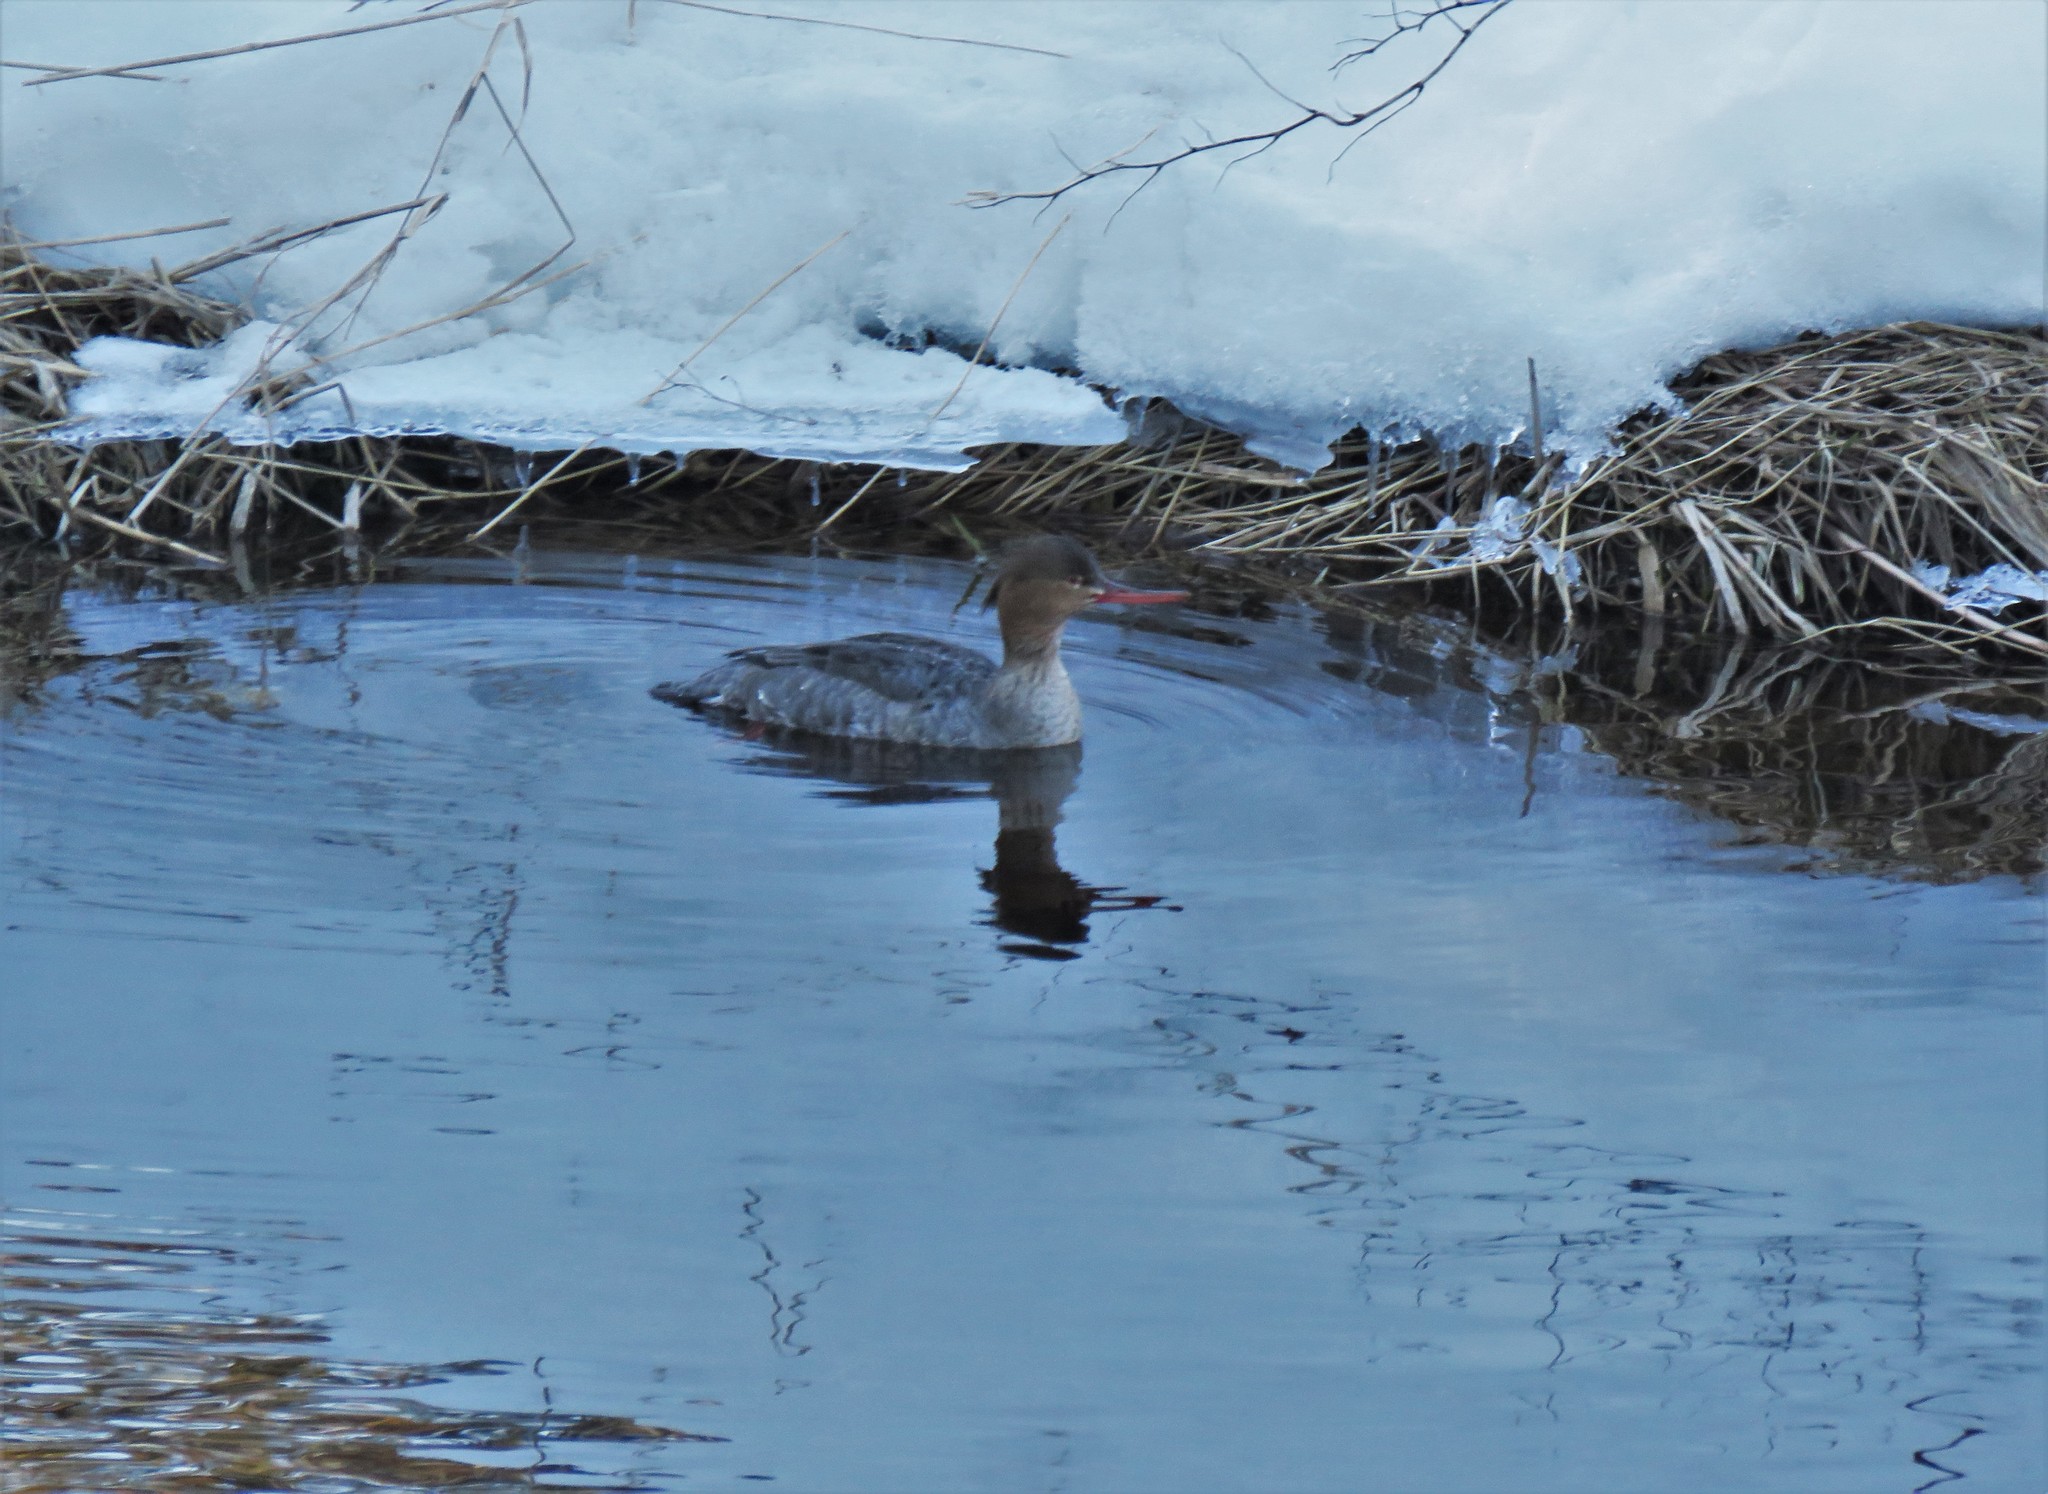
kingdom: Animalia
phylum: Chordata
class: Aves
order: Anseriformes
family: Anatidae
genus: Mergus
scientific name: Mergus serrator
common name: Red-breasted merganser
